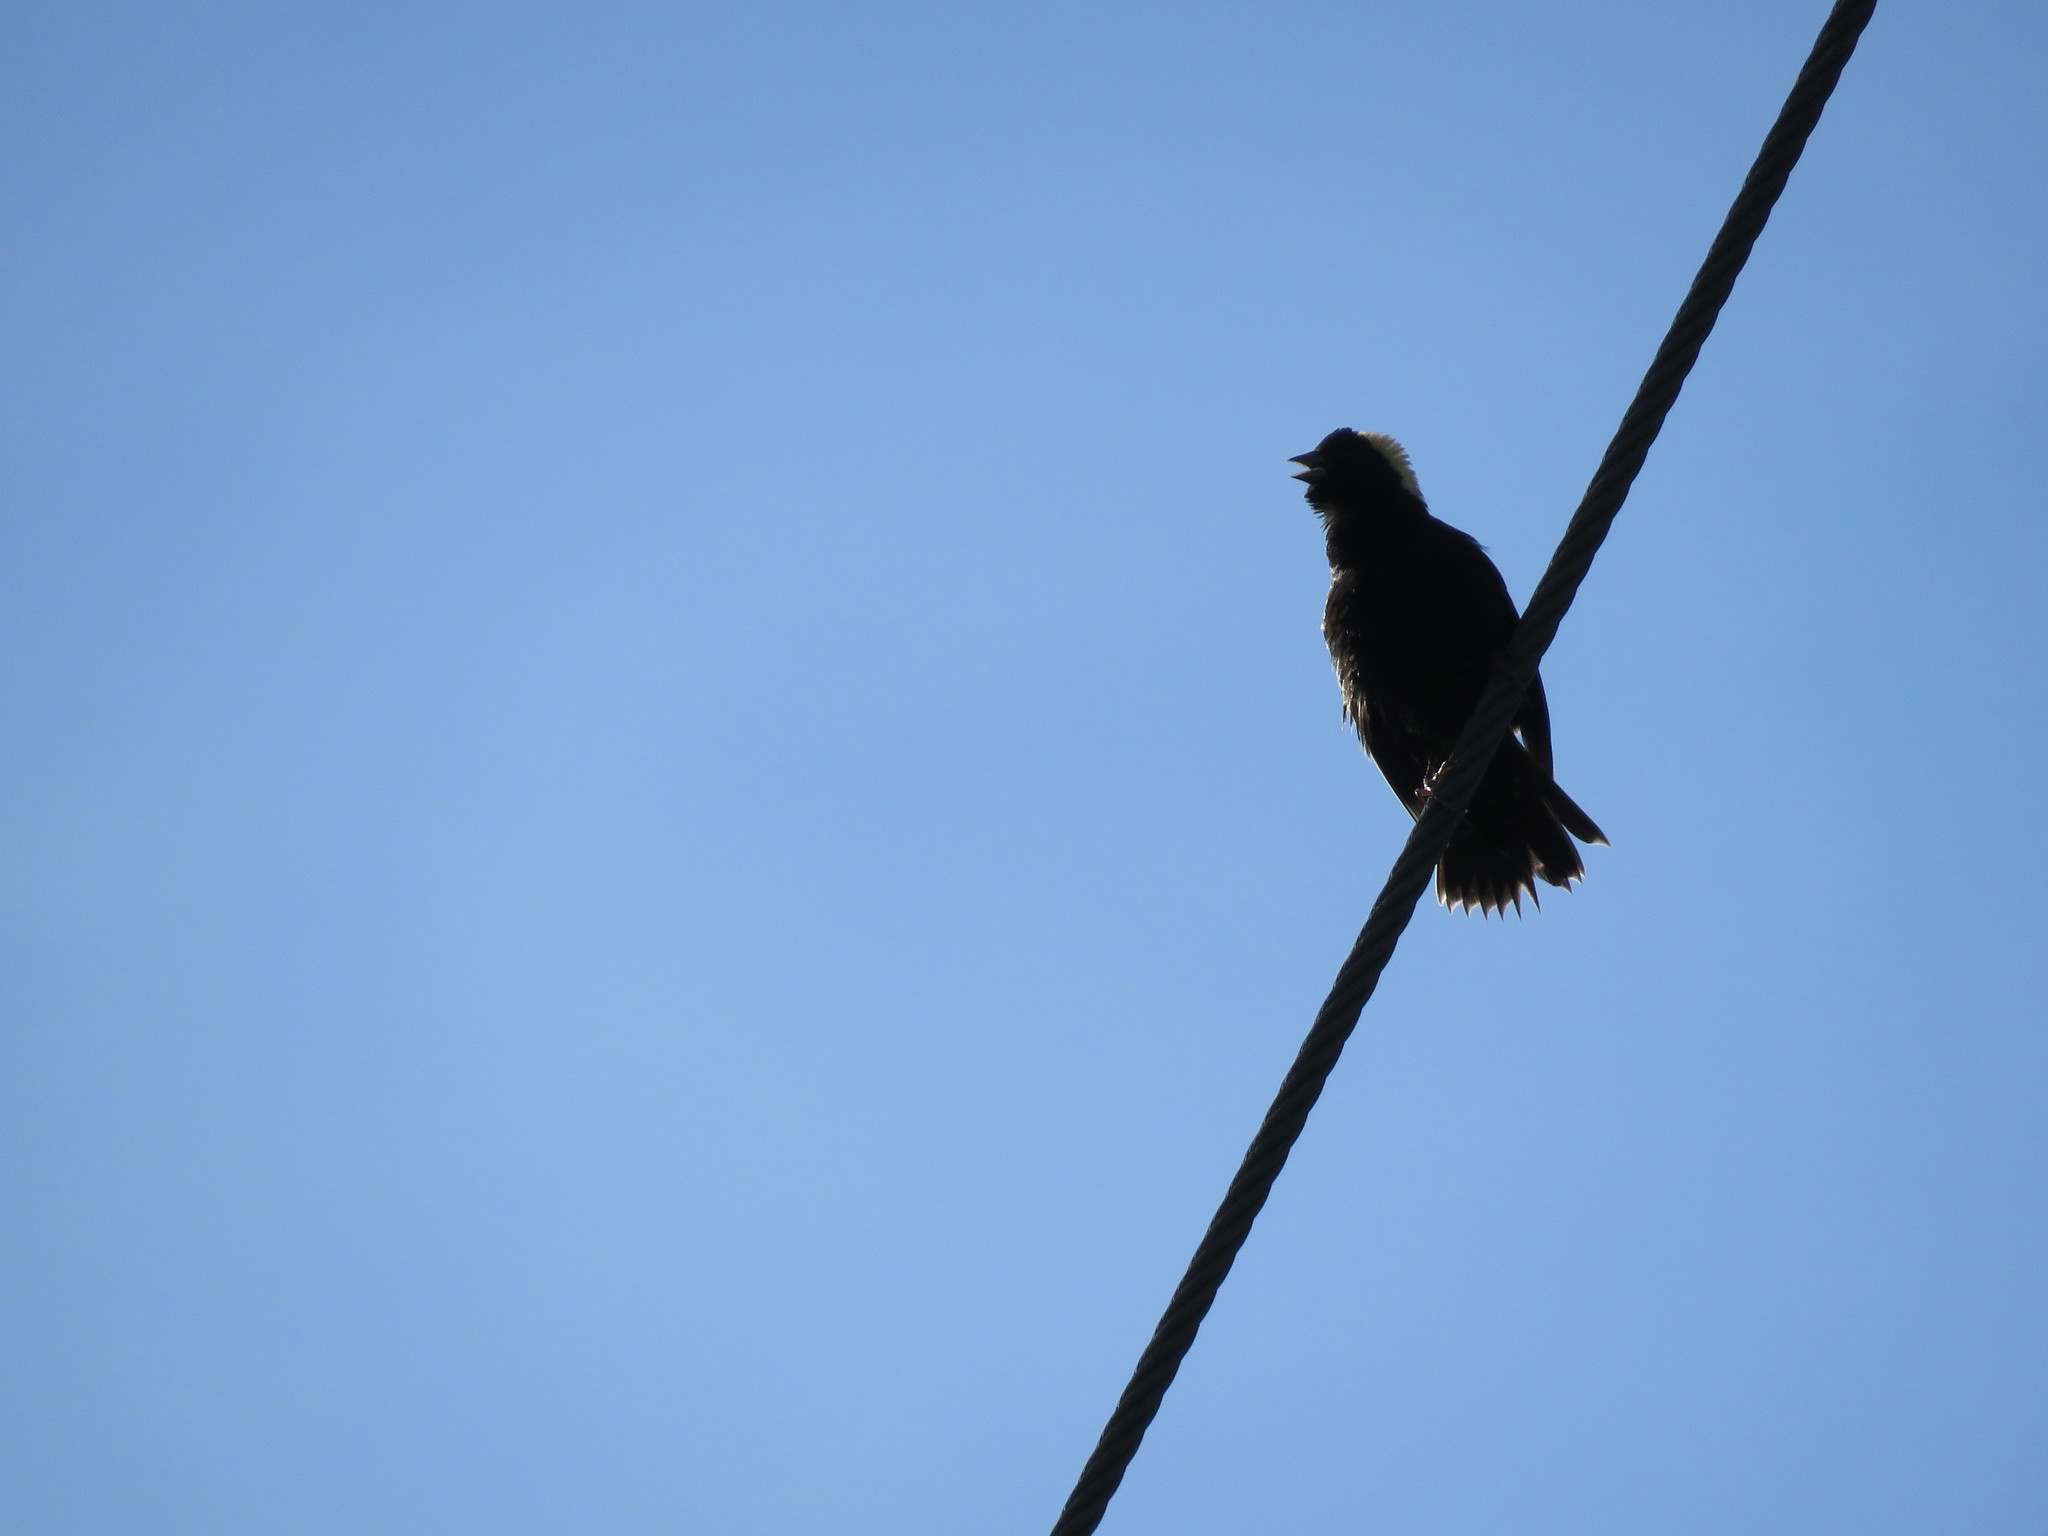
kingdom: Animalia
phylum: Chordata
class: Aves
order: Passeriformes
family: Icteridae
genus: Dolichonyx
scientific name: Dolichonyx oryzivorus
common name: Bobolink
